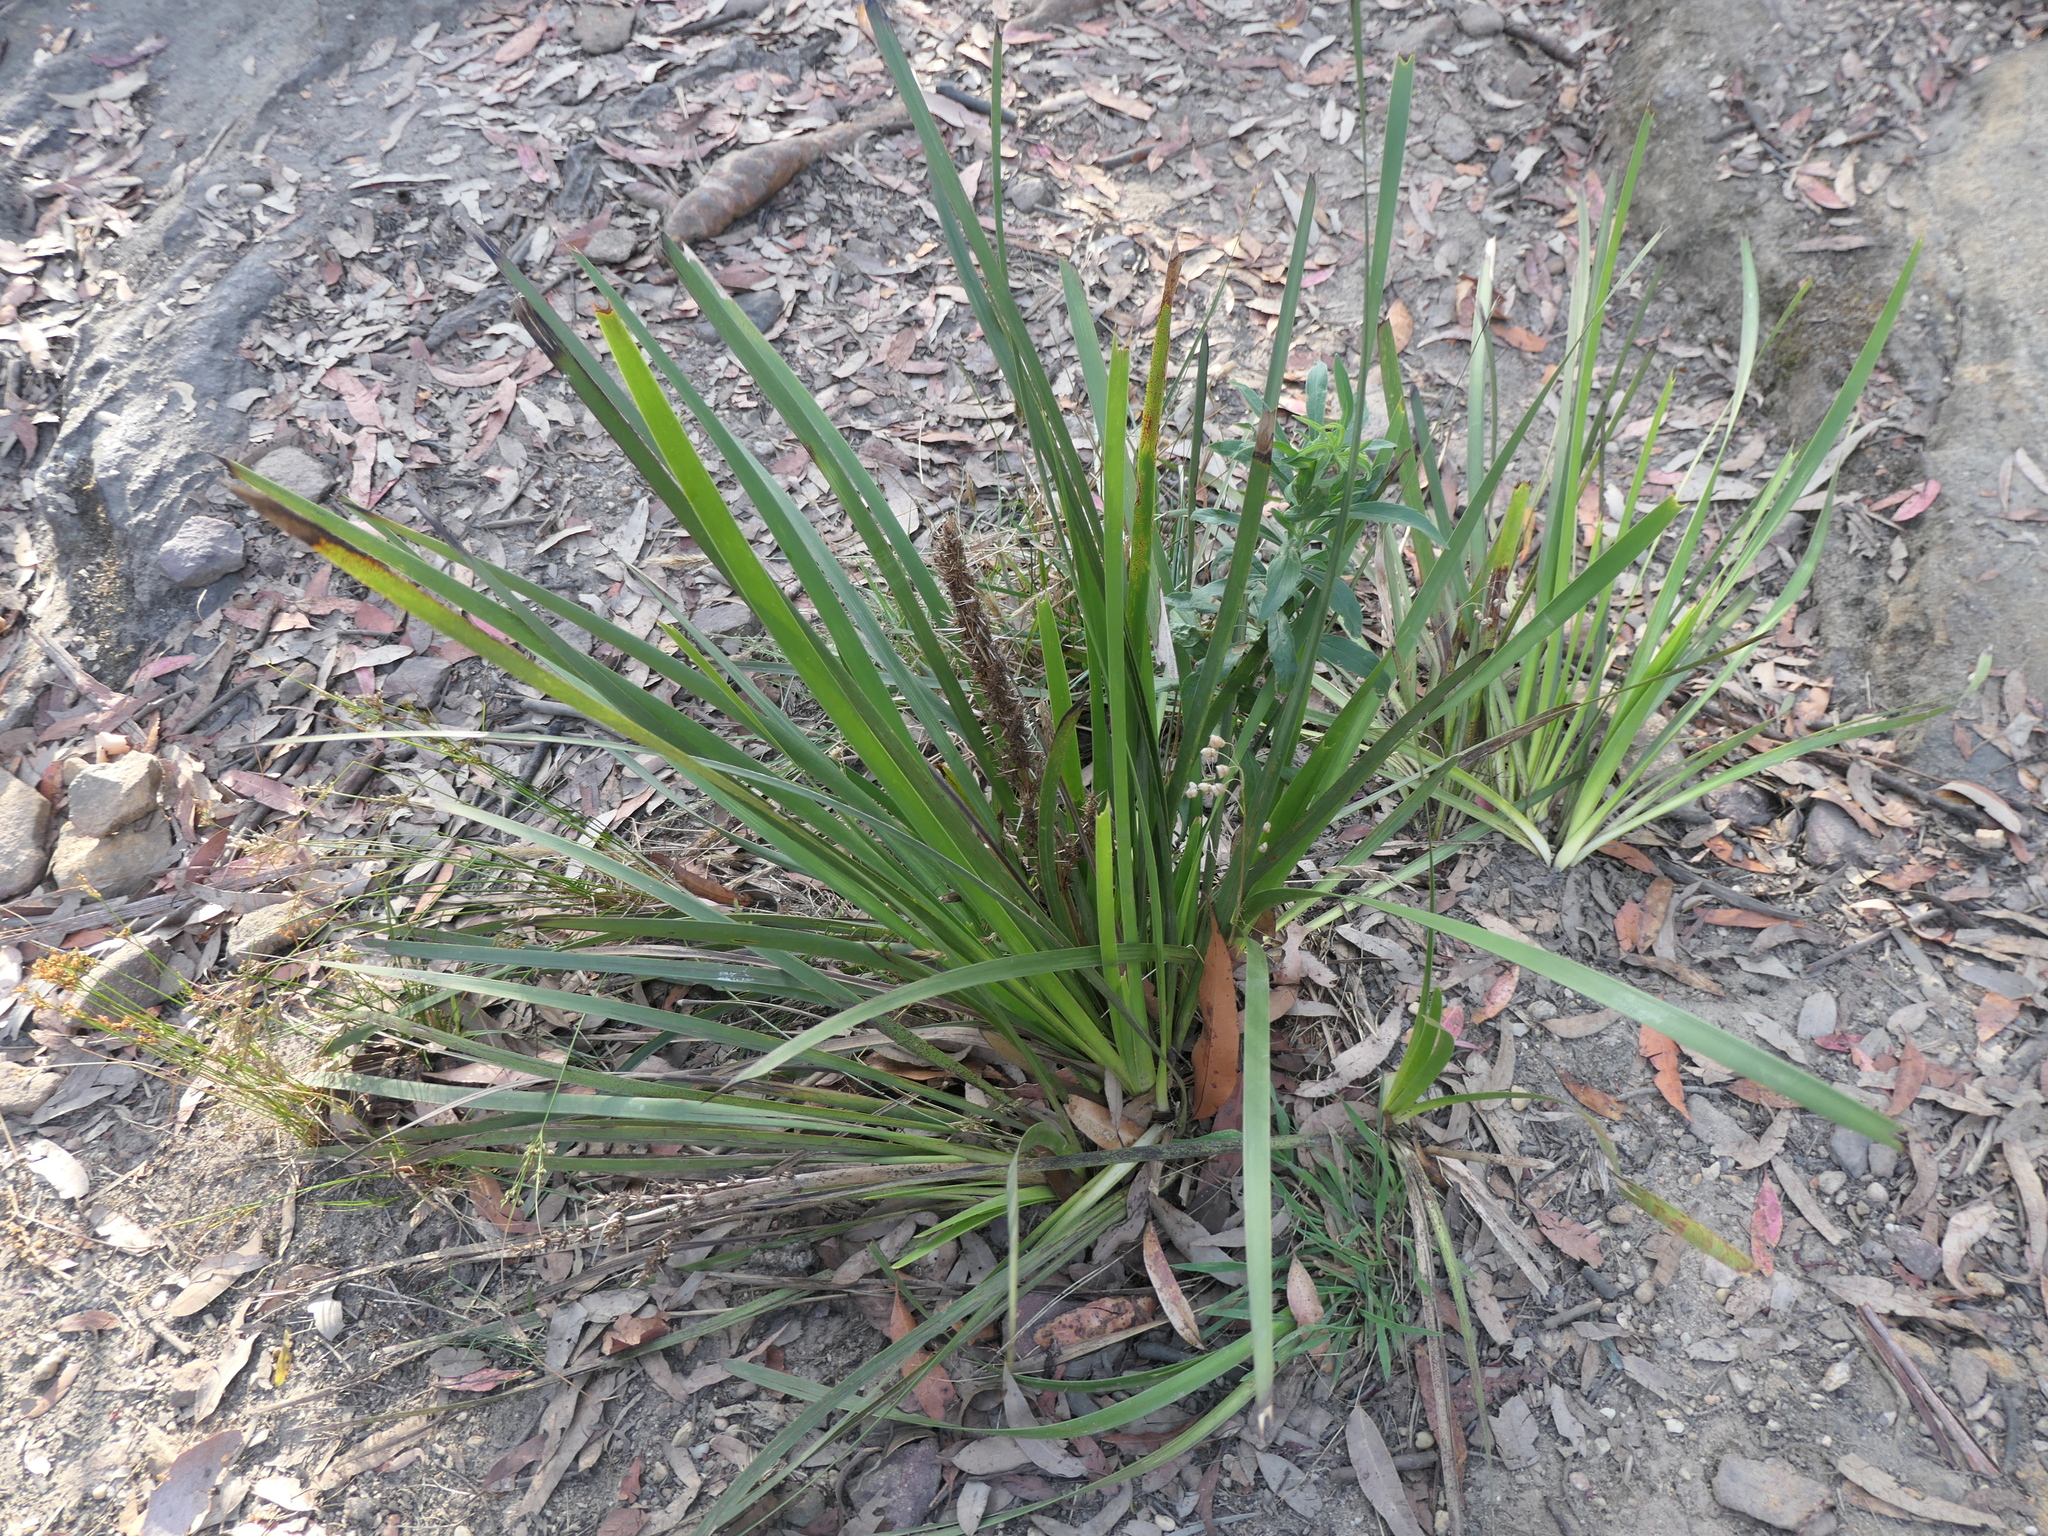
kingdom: Plantae
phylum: Tracheophyta
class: Liliopsida
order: Asparagales
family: Asparagaceae
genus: Lomandra
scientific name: Lomandra longifolia
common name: Longleaf mat-rush
